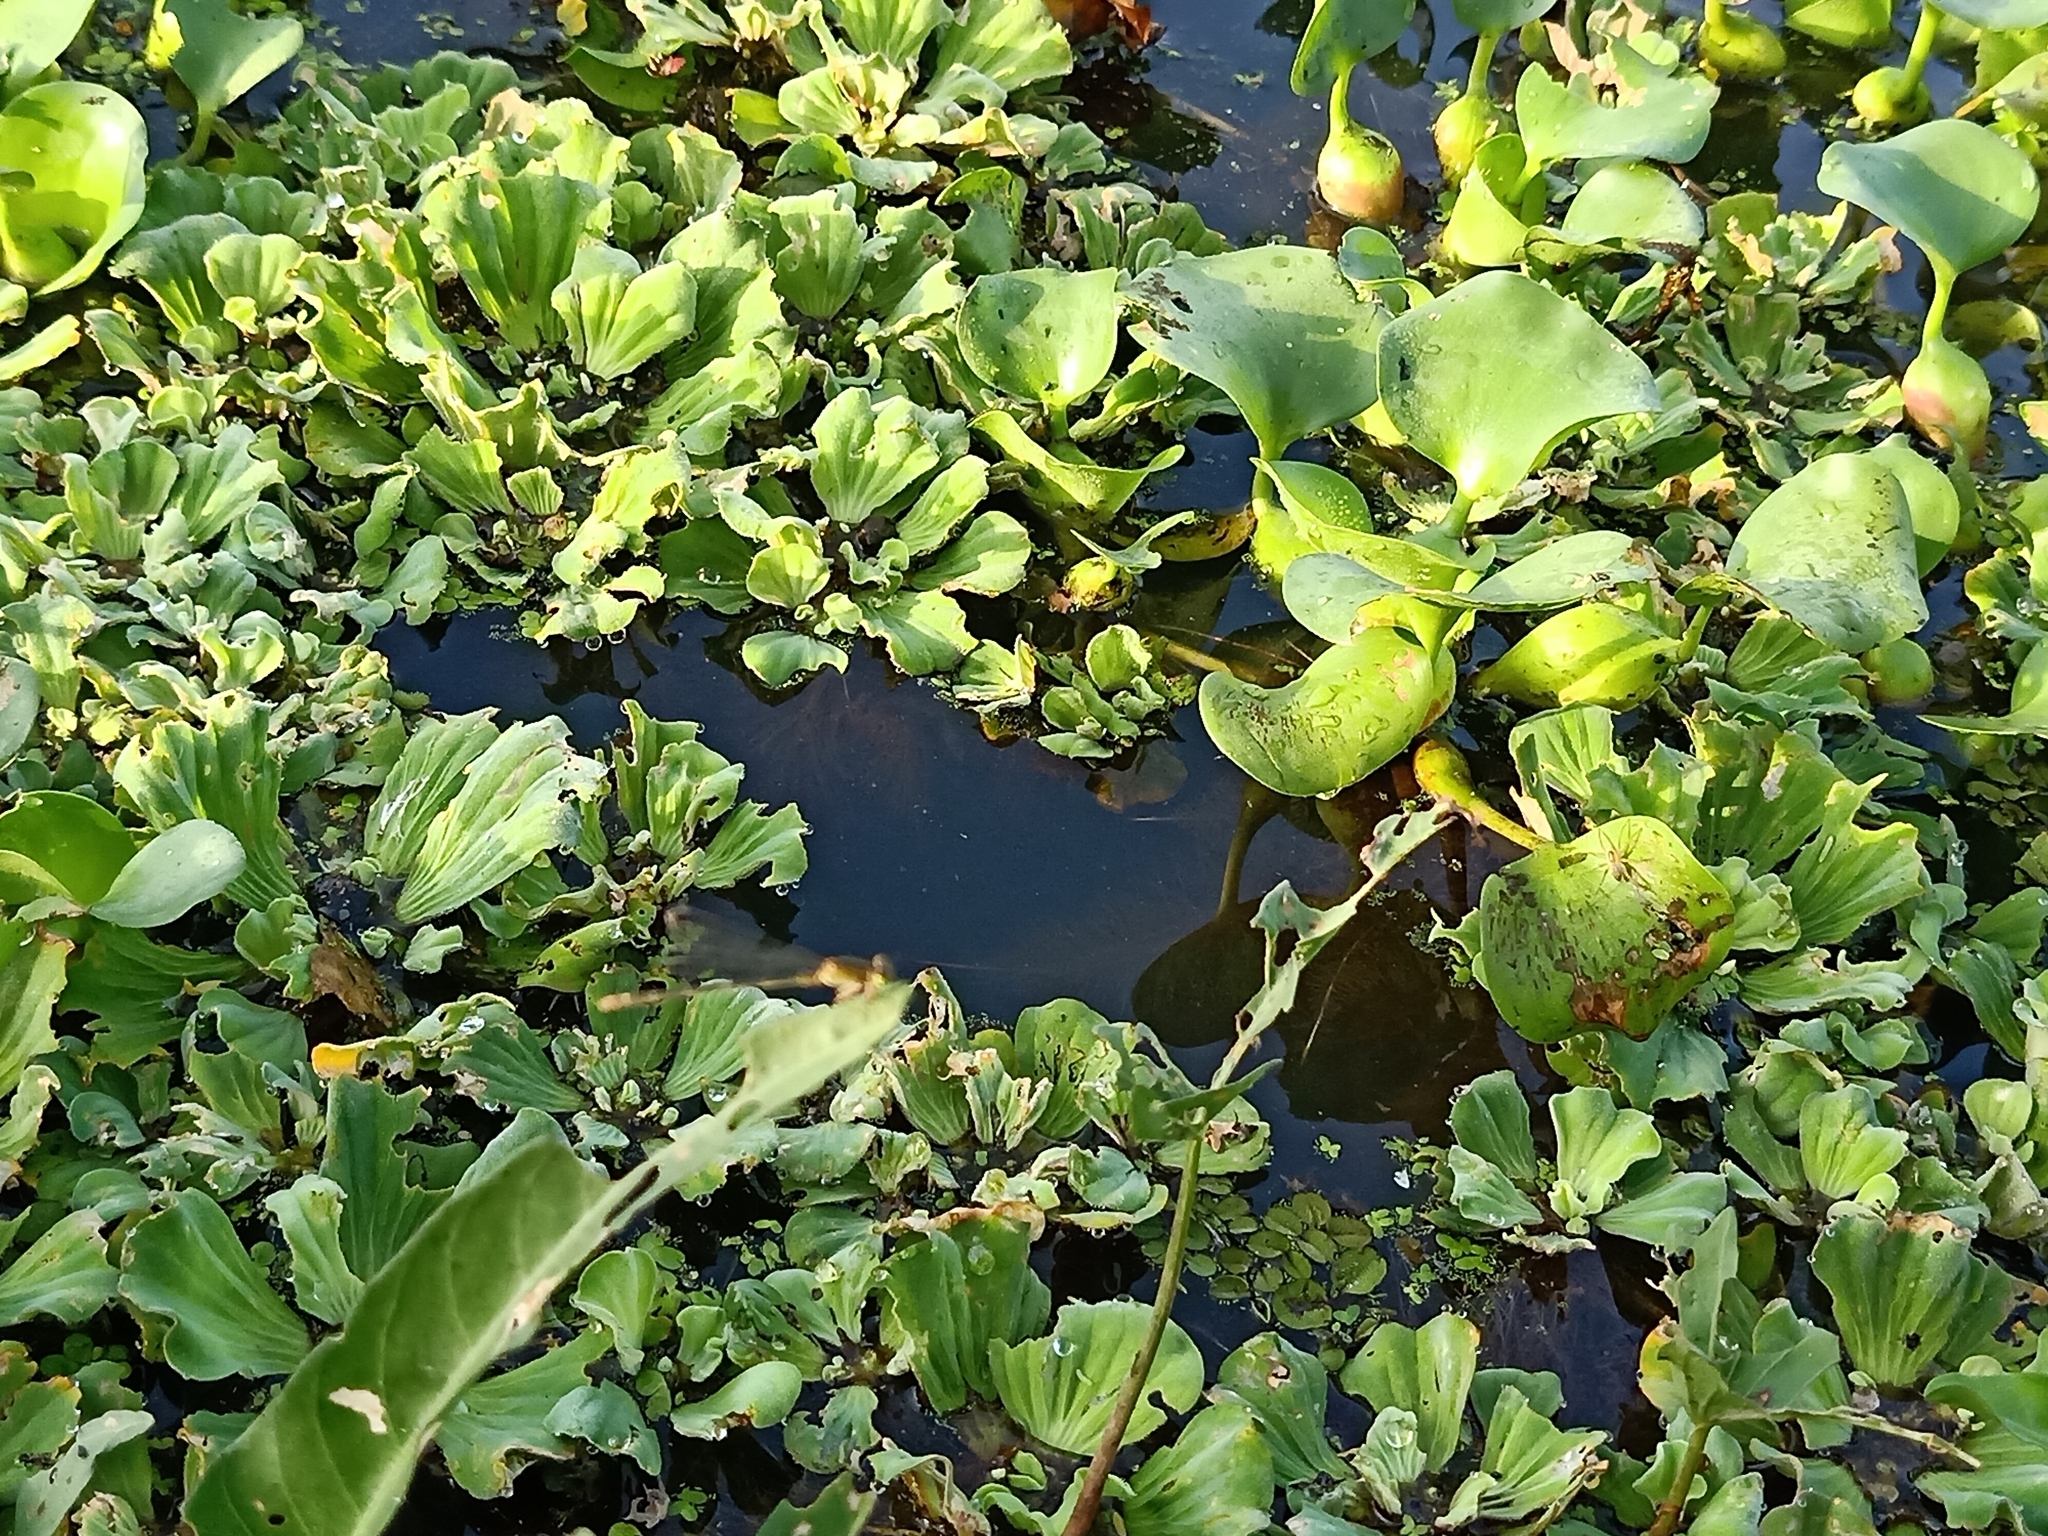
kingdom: Plantae
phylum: Tracheophyta
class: Liliopsida
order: Alismatales
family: Araceae
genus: Pistia
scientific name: Pistia stratiotes
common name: Water lettuce
